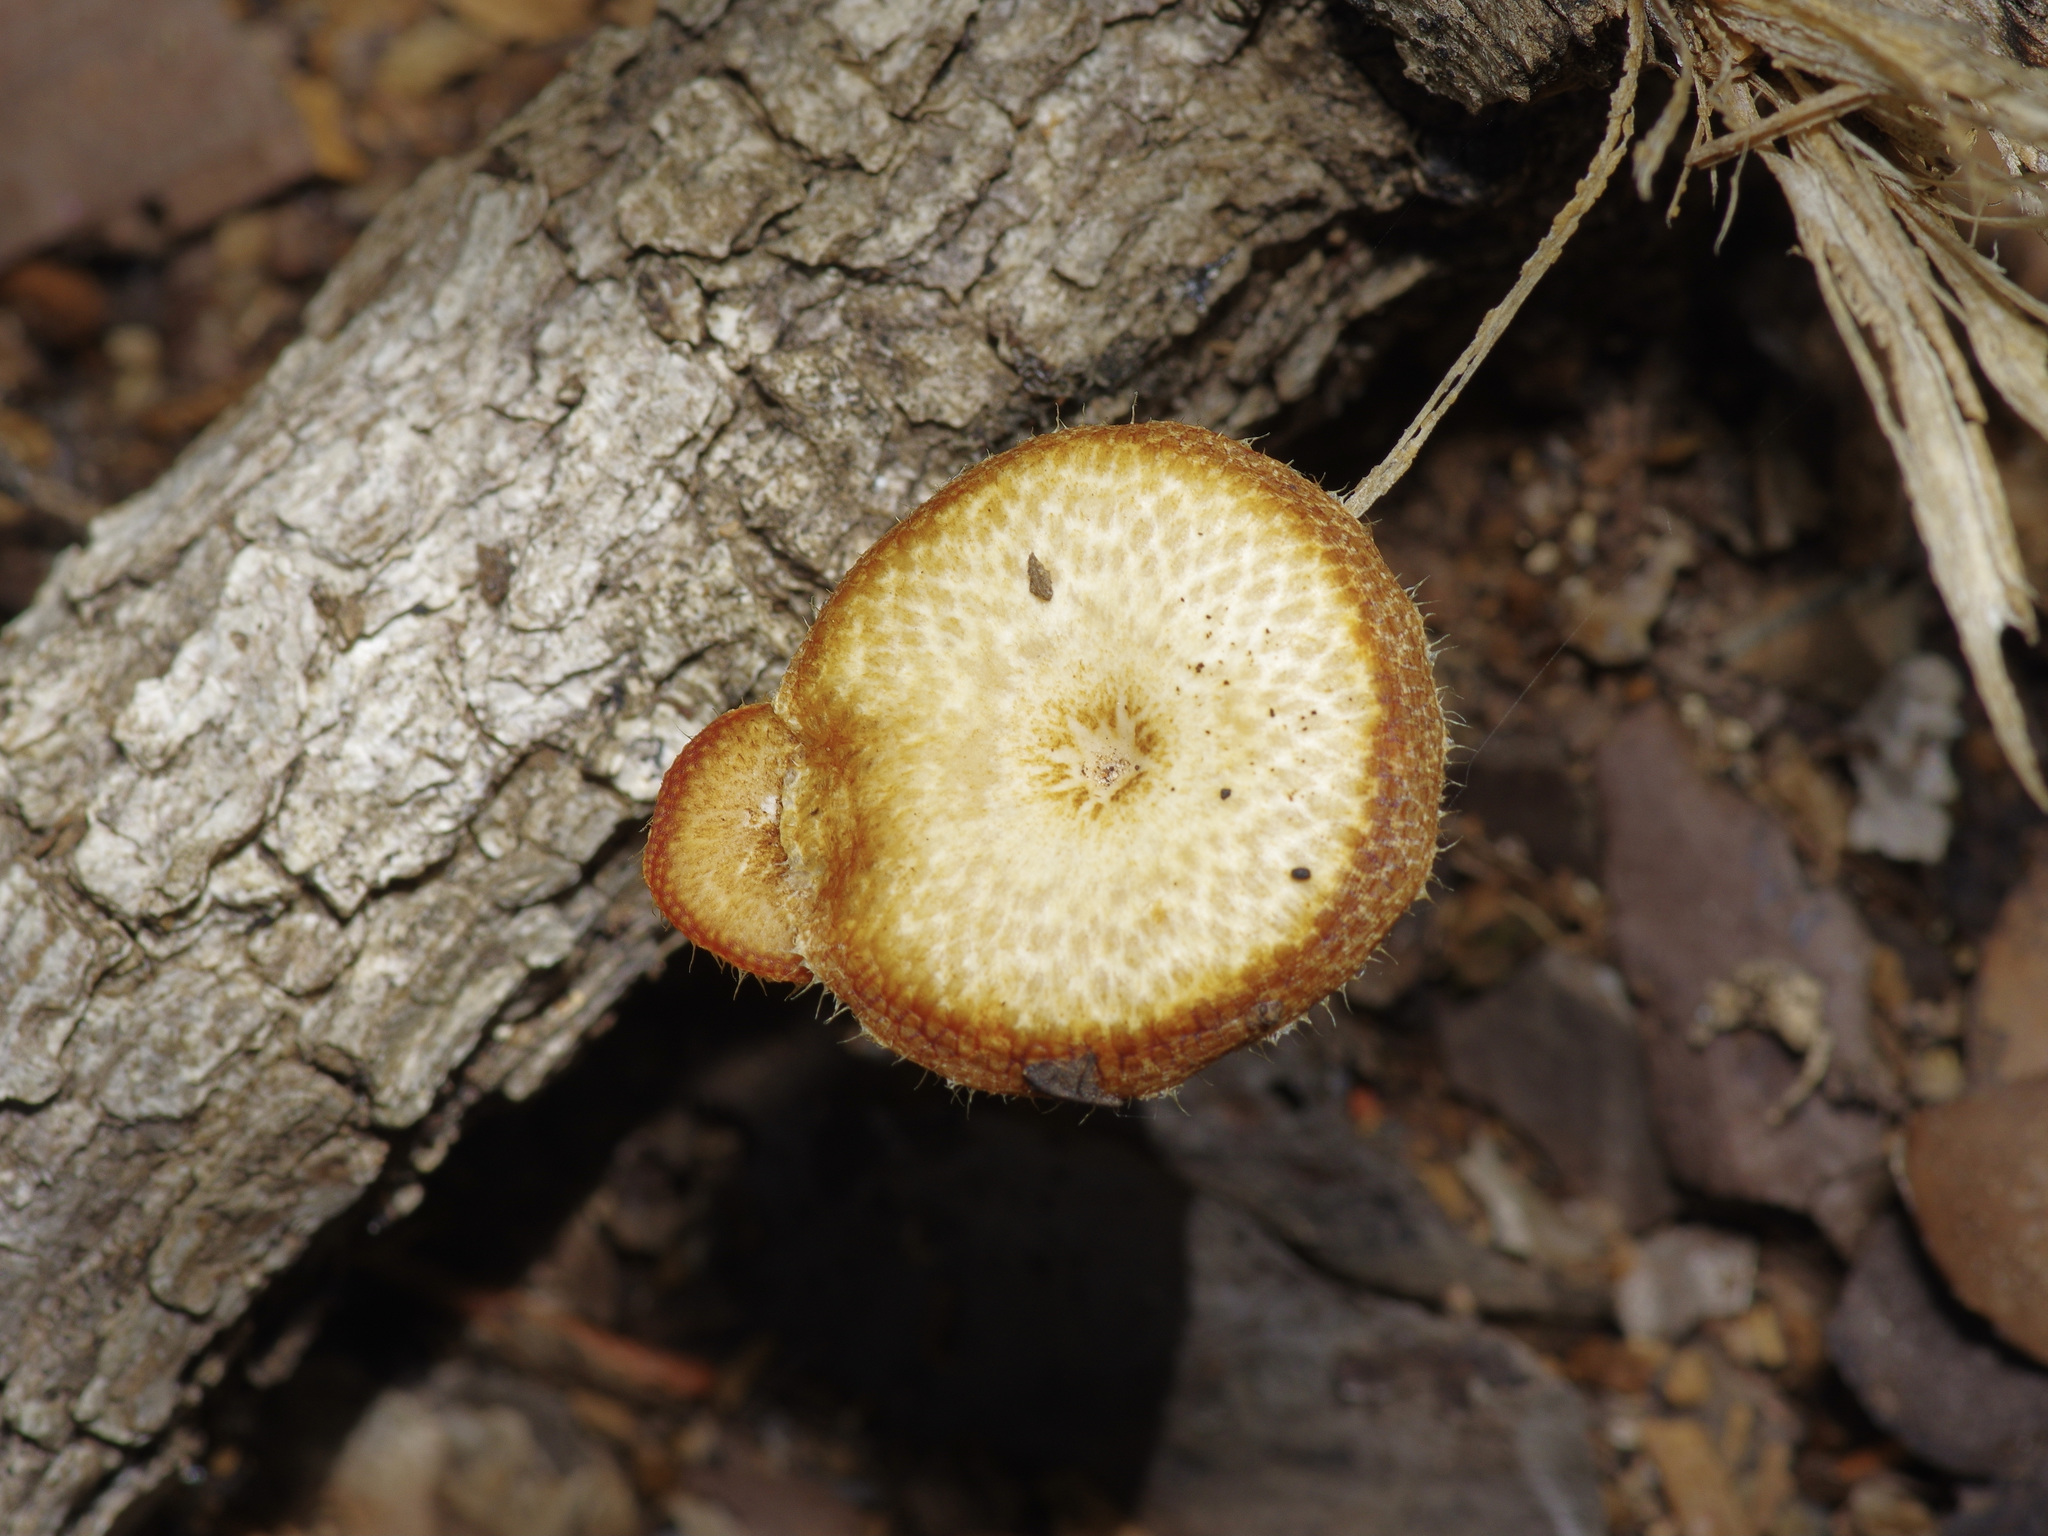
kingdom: Fungi
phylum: Basidiomycota
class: Agaricomycetes
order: Polyporales
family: Polyporaceae
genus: Lentinus
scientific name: Lentinus arcularius
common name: Spring polypore
